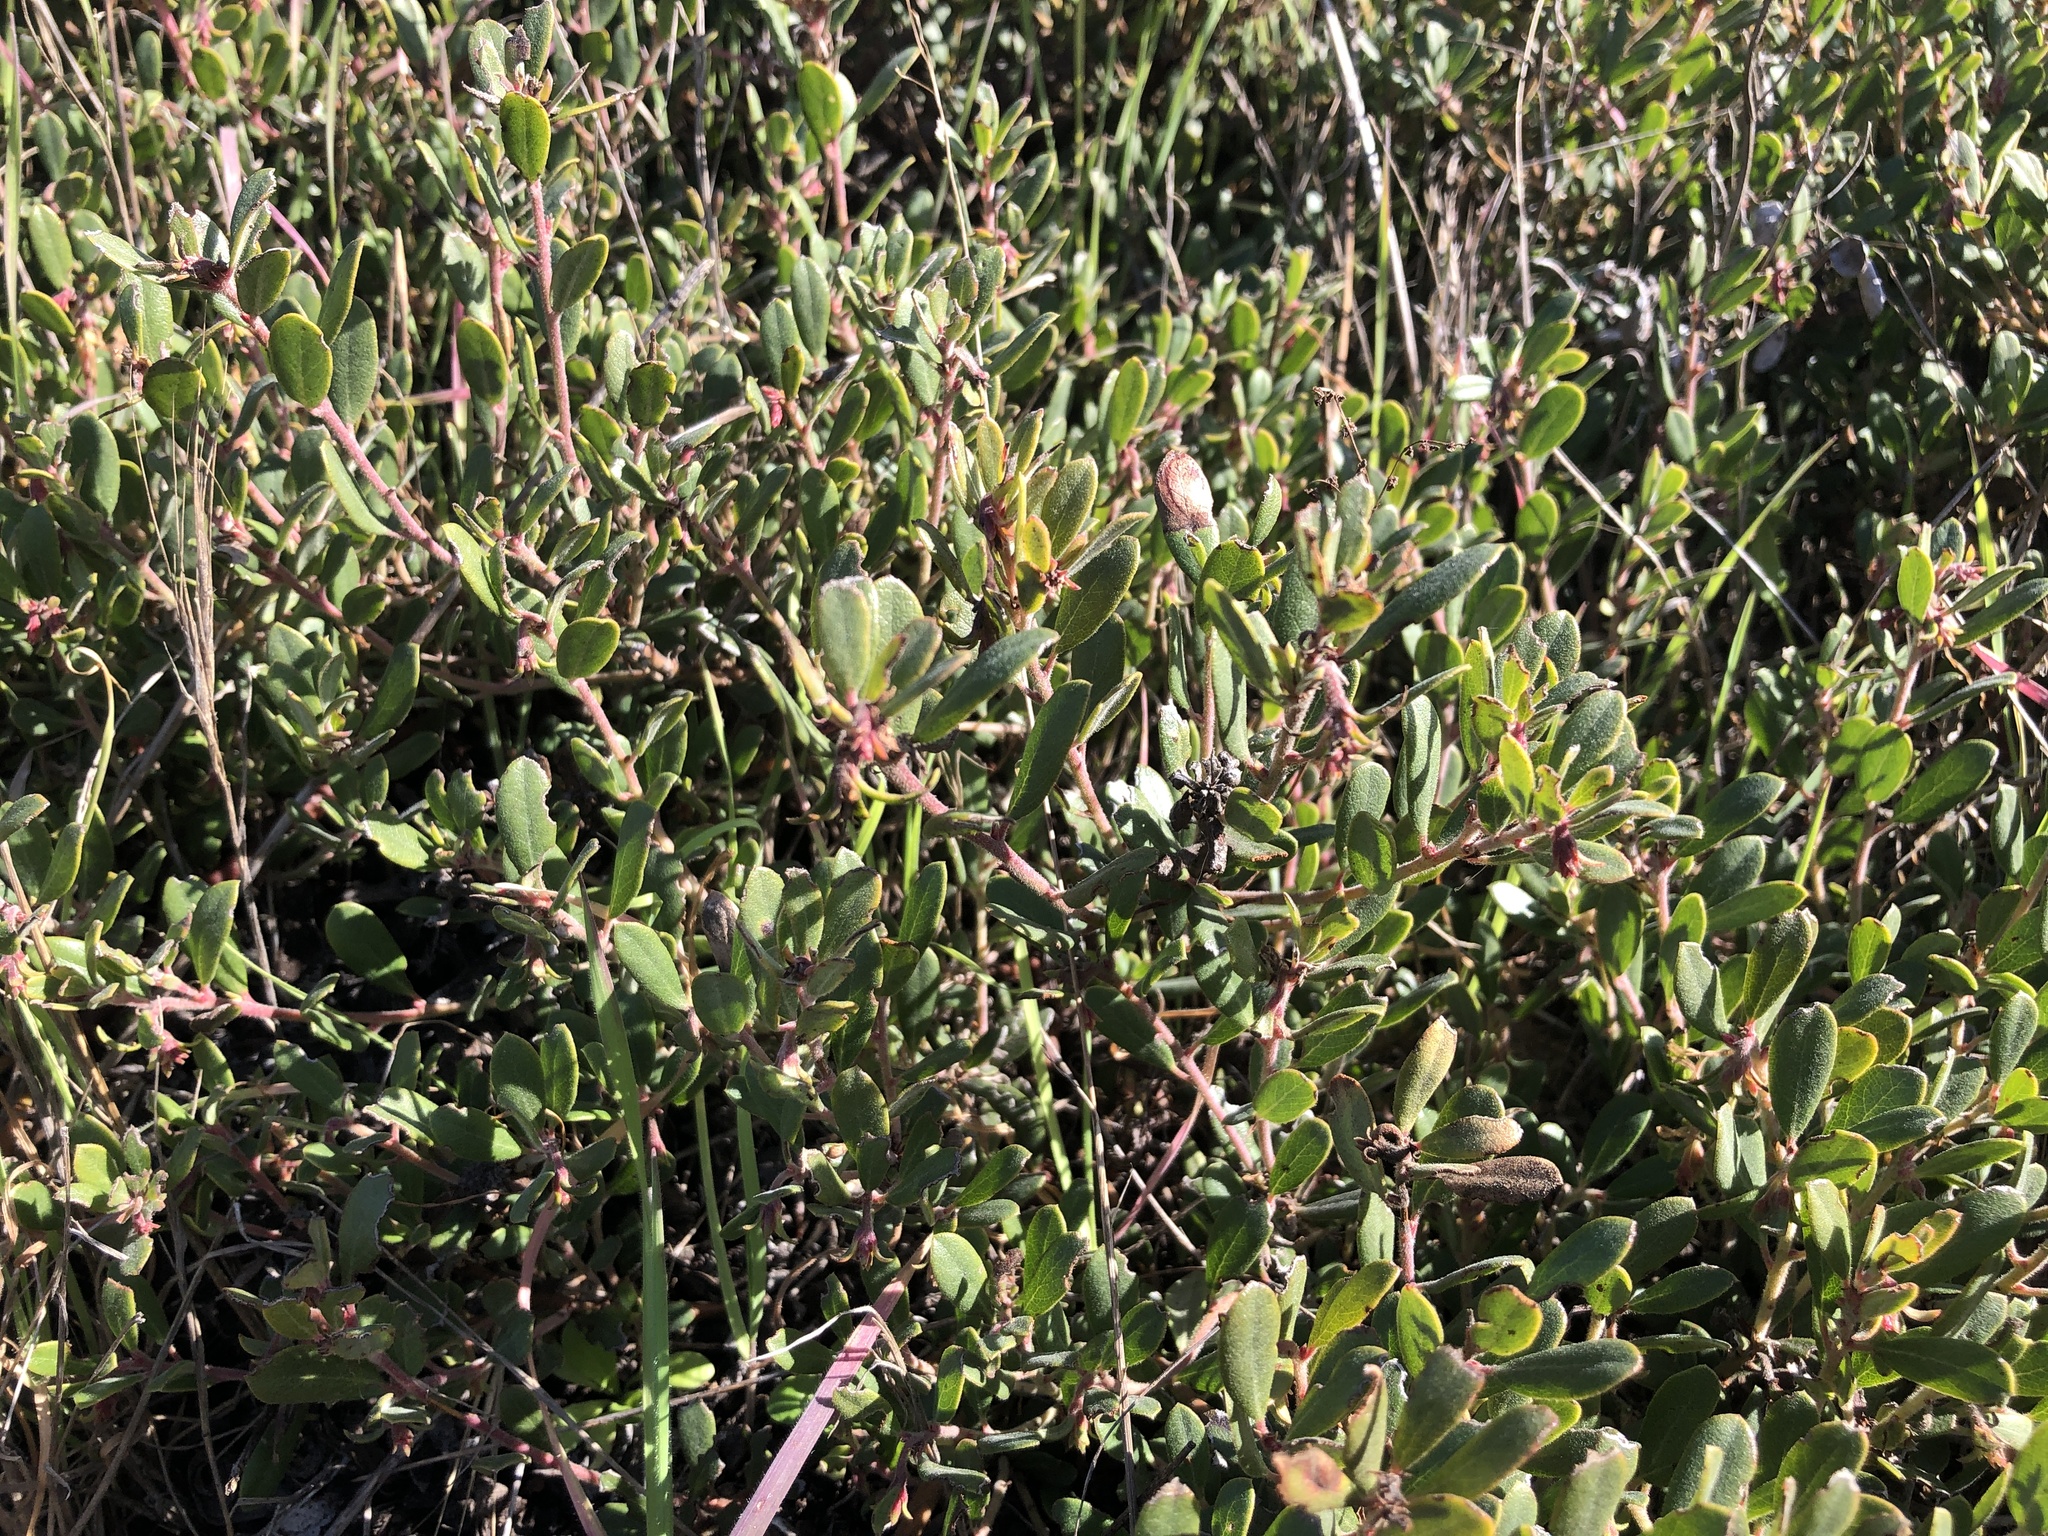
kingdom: Plantae
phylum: Tracheophyta
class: Magnoliopsida
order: Ericales
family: Ericaceae
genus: Arctostaphylos
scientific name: Arctostaphylos pumila
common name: Sandmat manzanita
